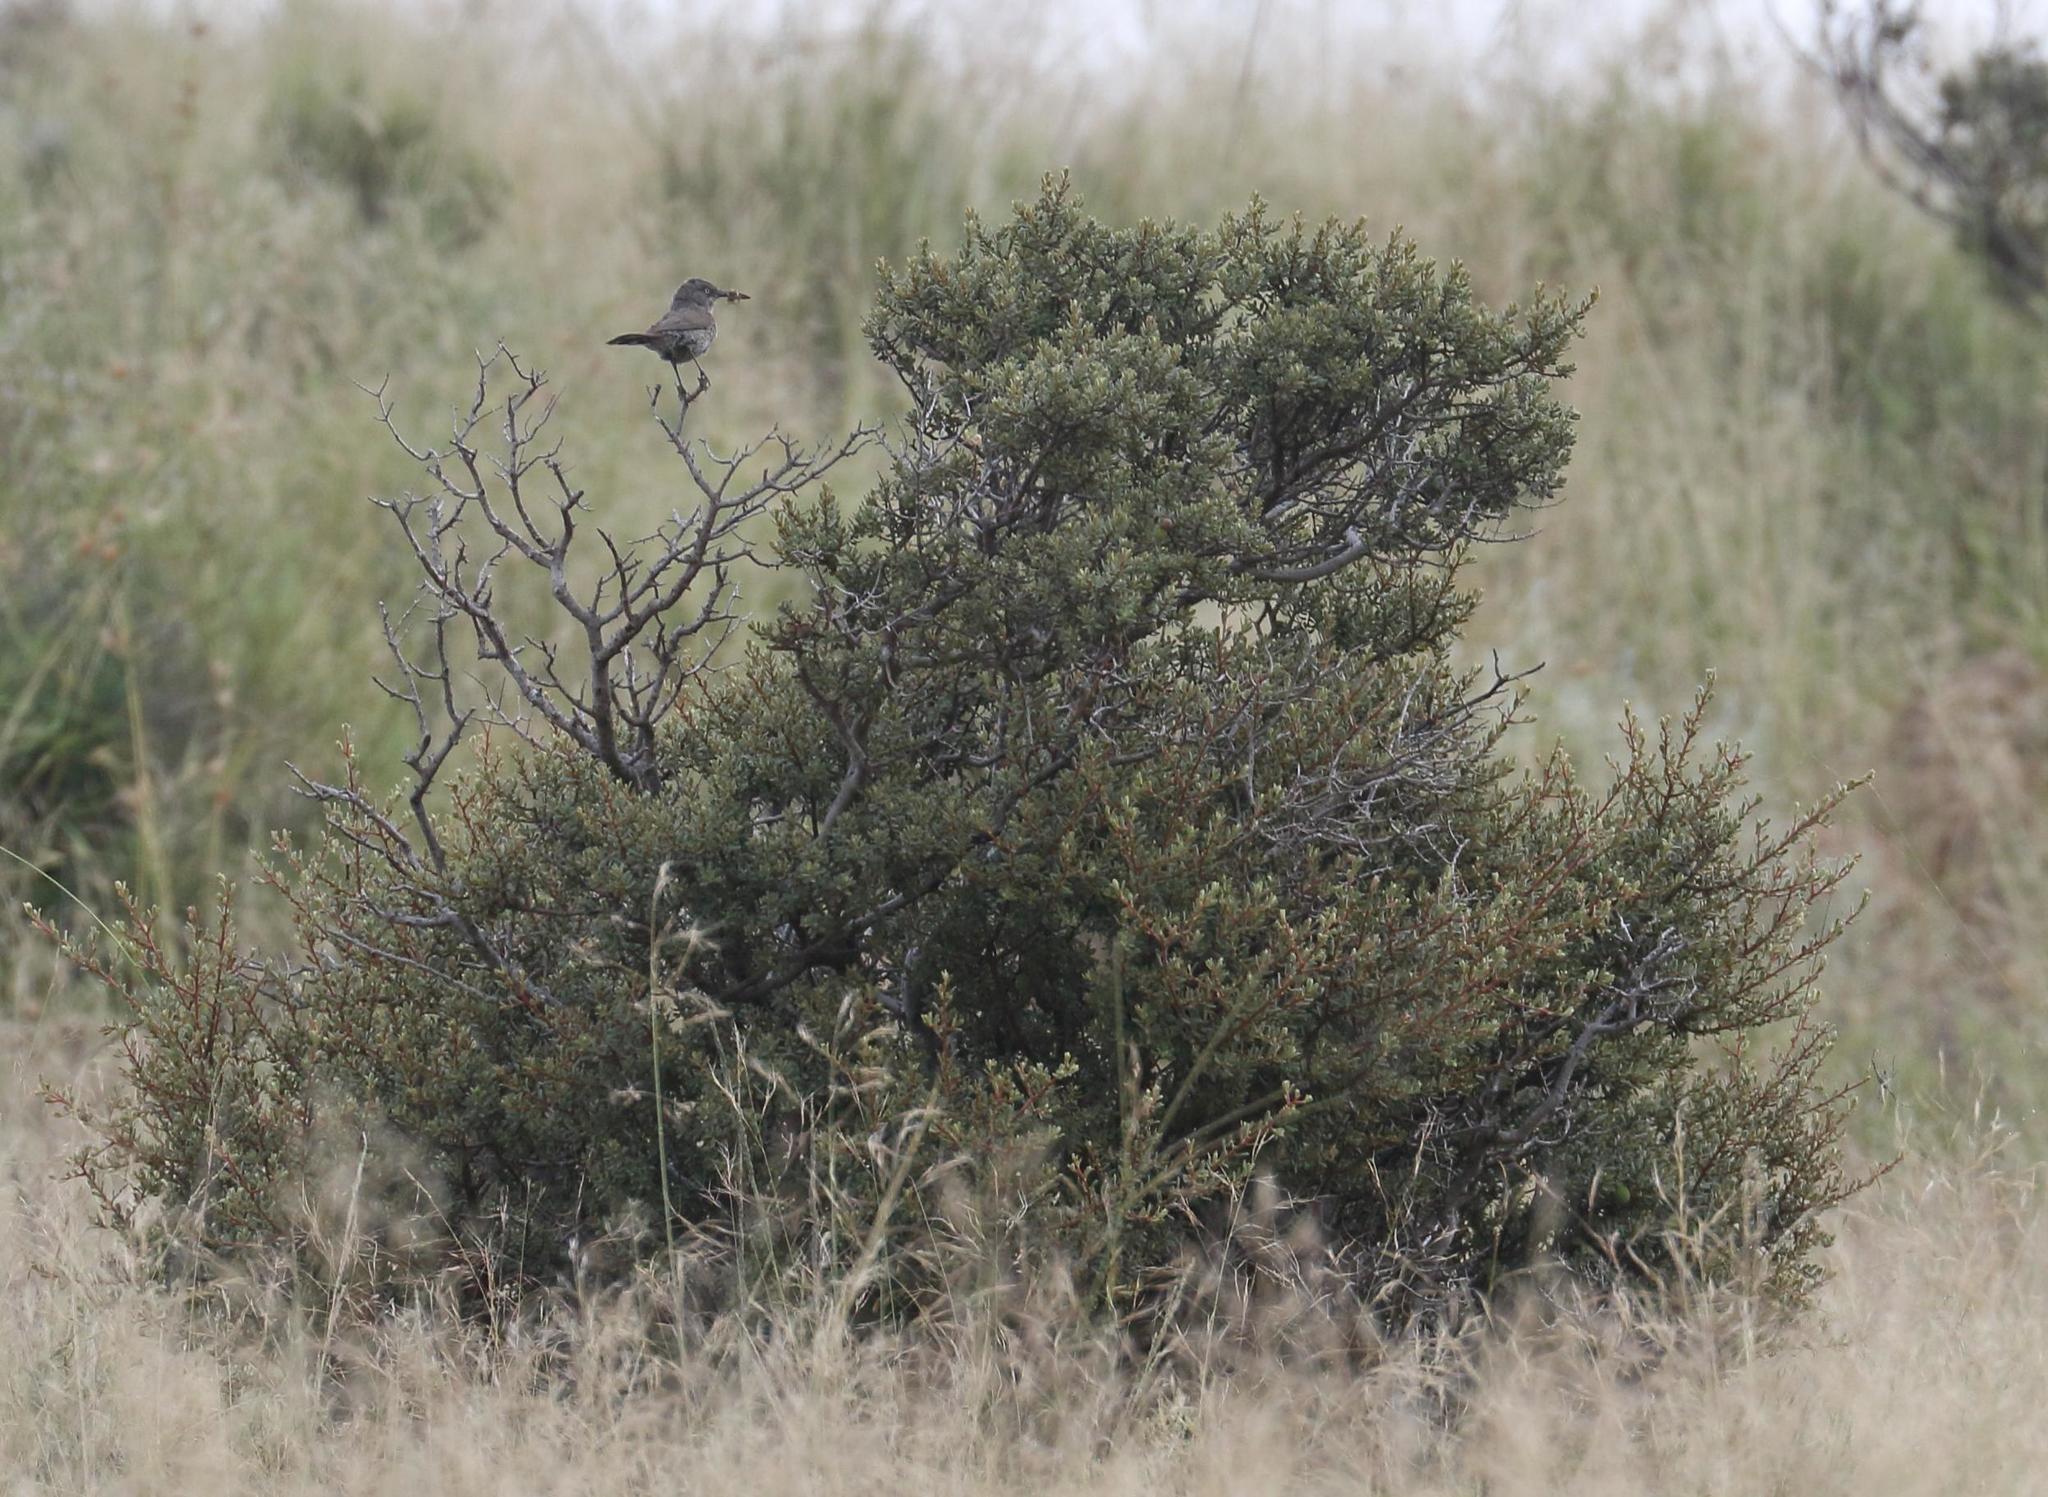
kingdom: Animalia
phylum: Chordata
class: Aves
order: Passeriformes
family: Sylviidae
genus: Sylvia
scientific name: Sylvia layardi
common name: Layard's warbler
